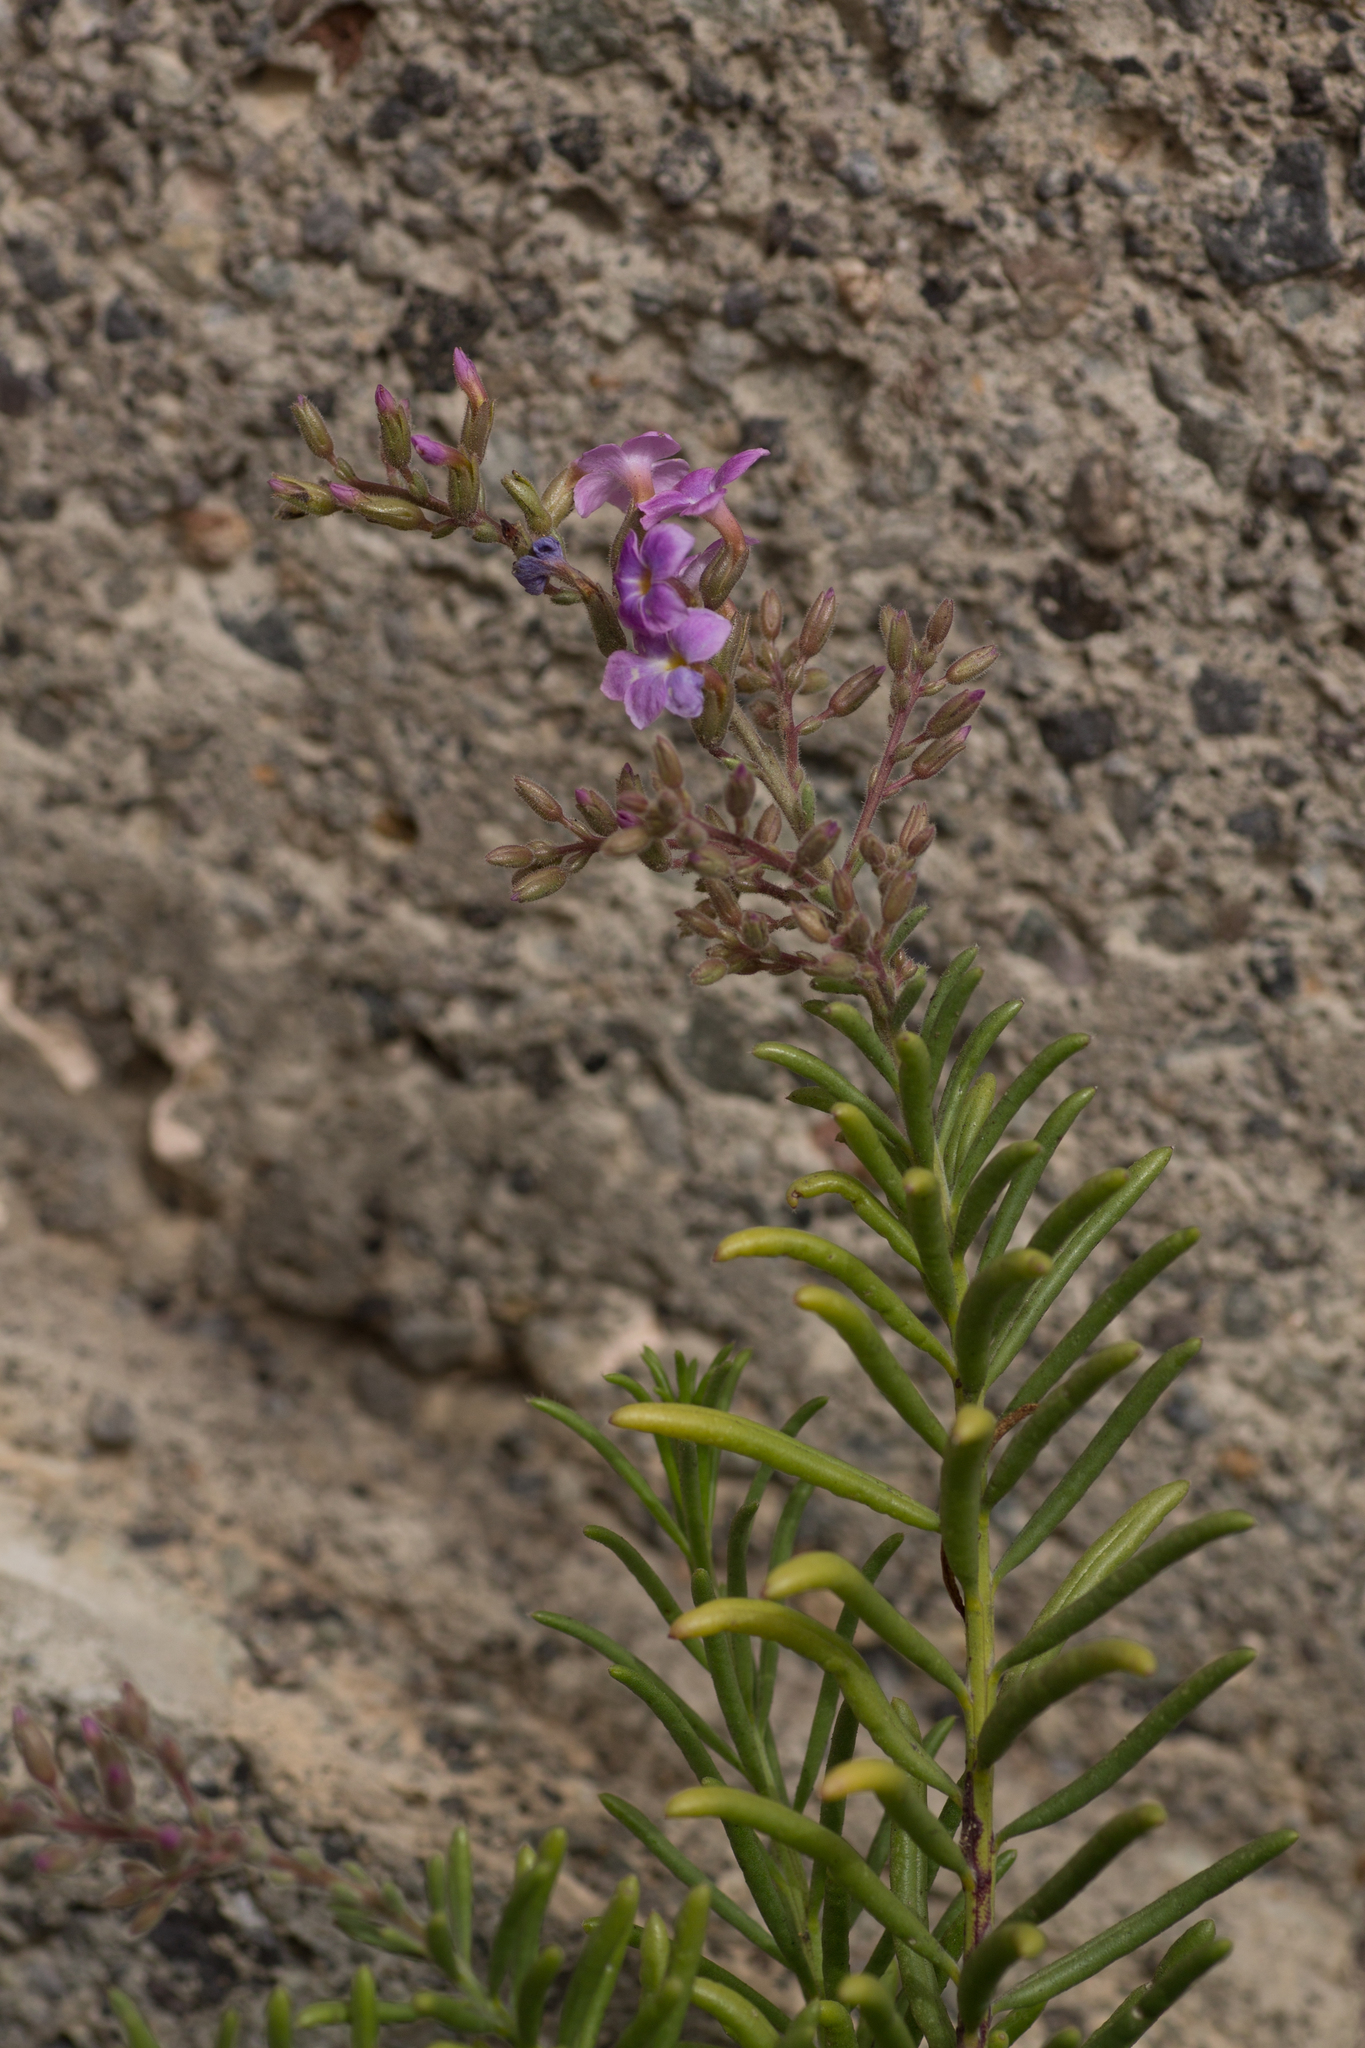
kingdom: Plantae
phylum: Tracheophyta
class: Magnoliopsida
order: Lamiales
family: Plantaginaceae
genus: Campylanthus
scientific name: Campylanthus salsoloides
